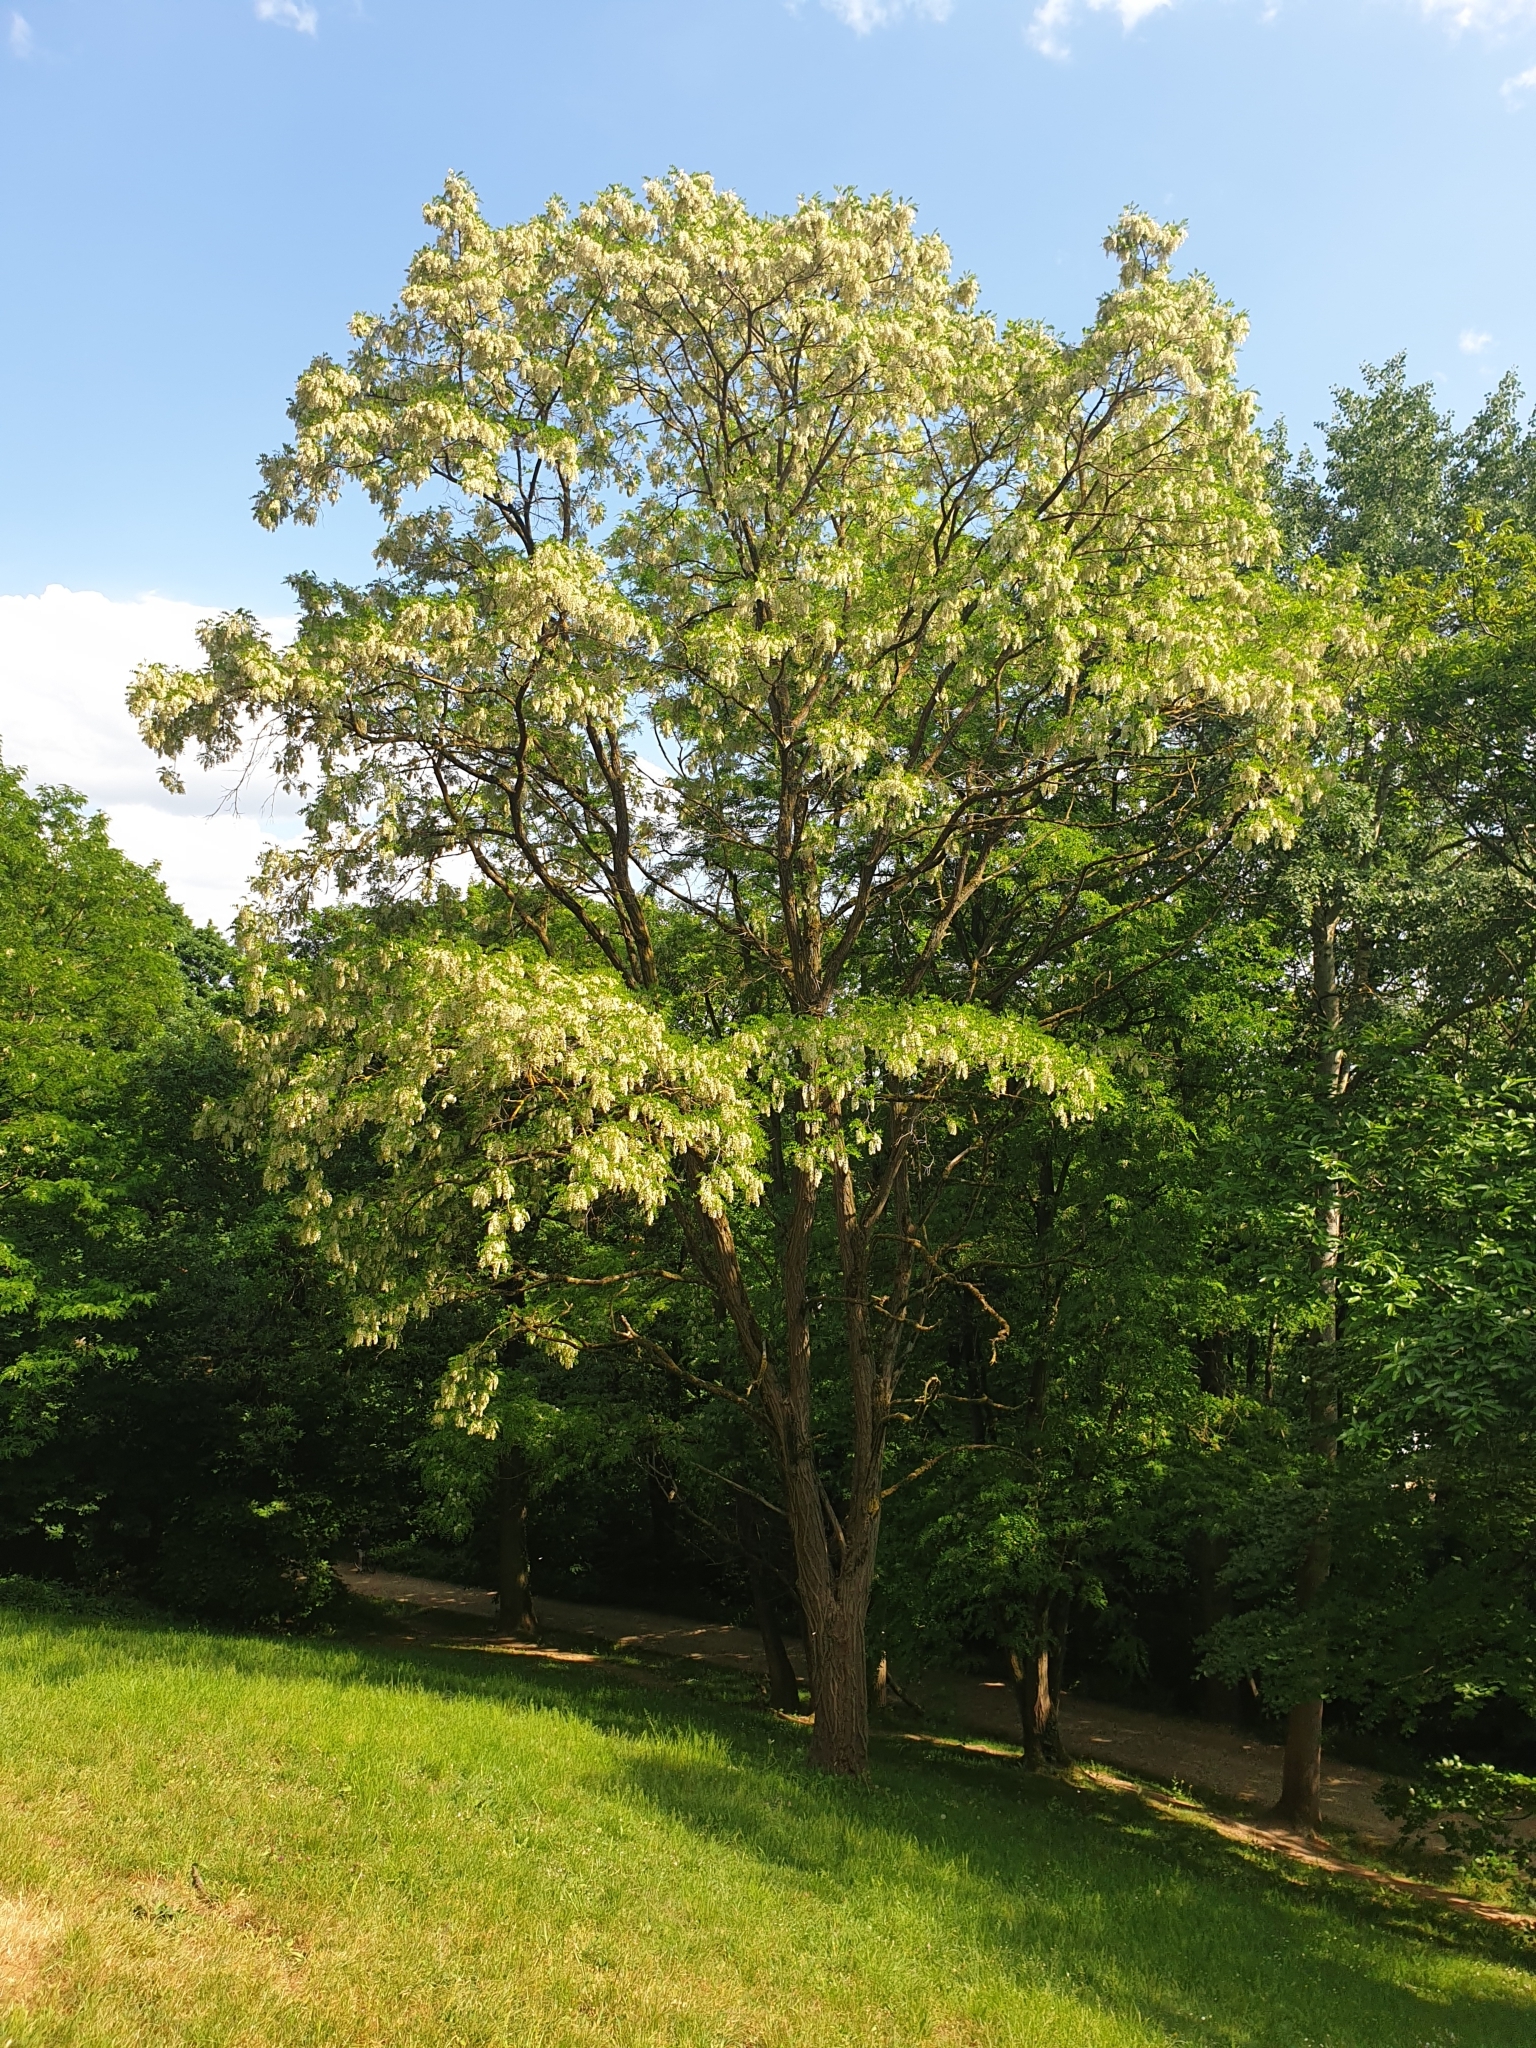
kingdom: Plantae
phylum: Tracheophyta
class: Magnoliopsida
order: Fabales
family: Fabaceae
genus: Robinia
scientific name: Robinia pseudoacacia
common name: Black locust
